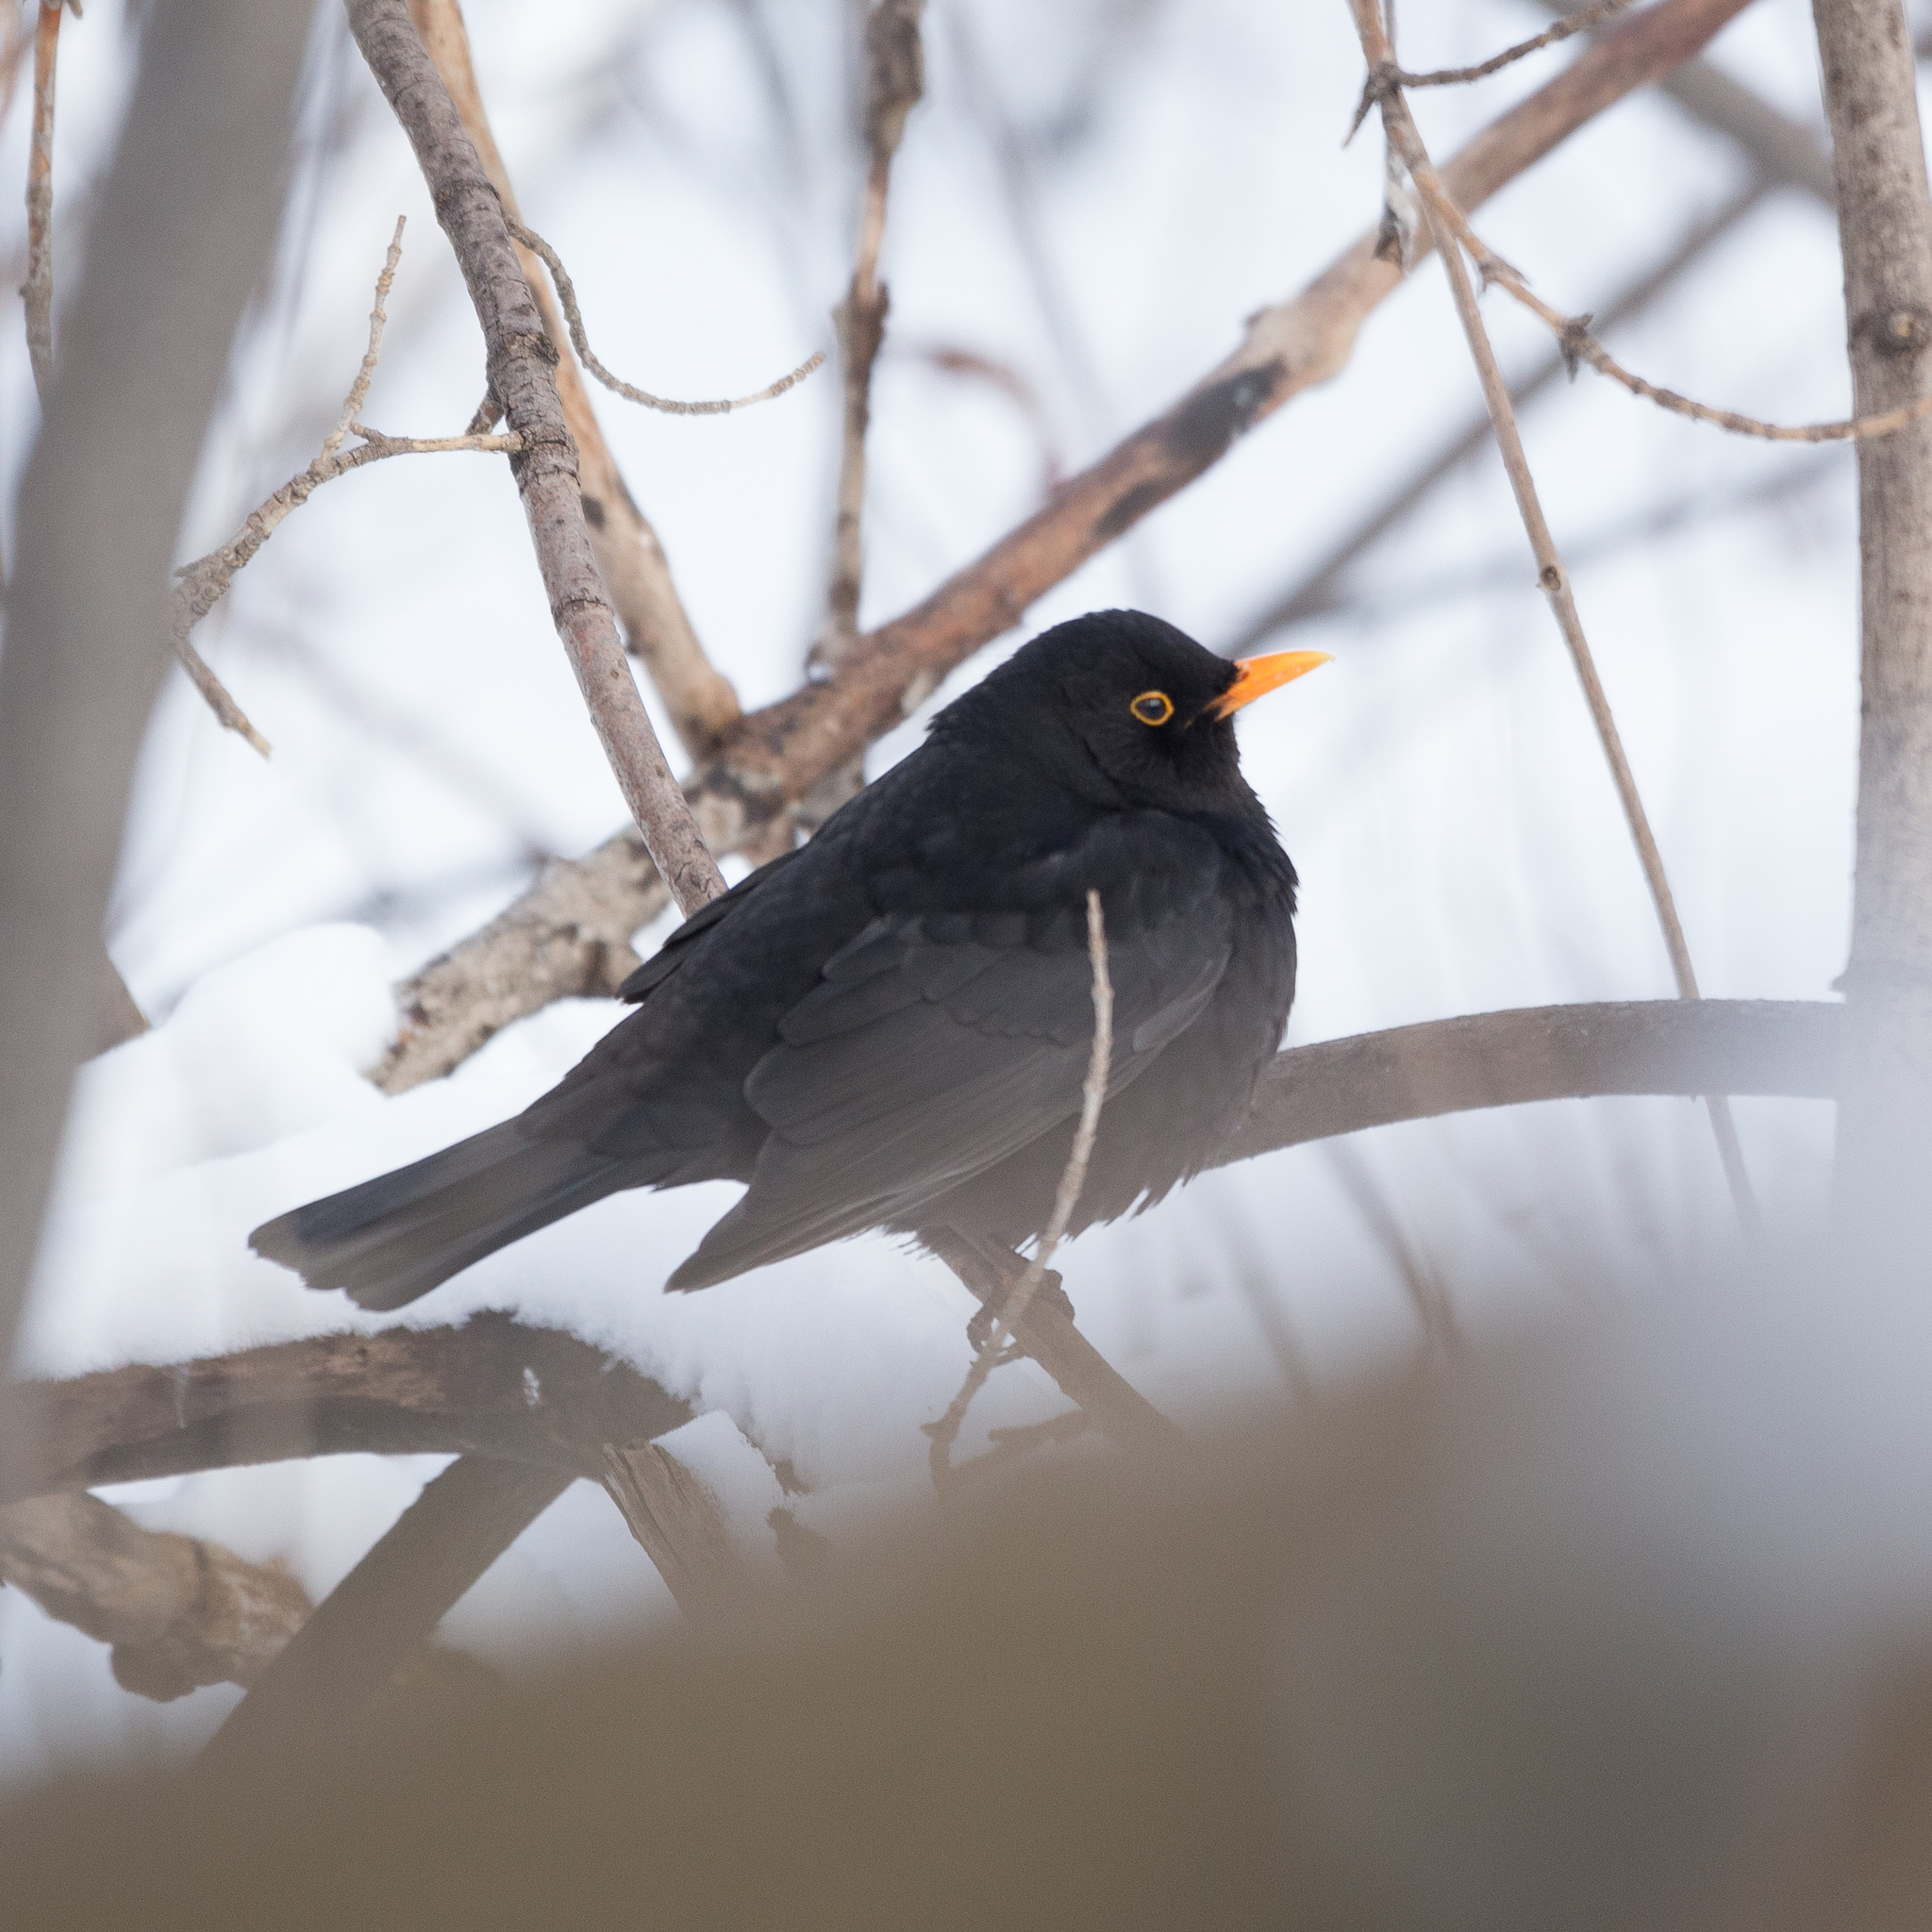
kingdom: Animalia
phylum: Chordata
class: Aves
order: Passeriformes
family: Turdidae
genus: Turdus
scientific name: Turdus merula
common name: Common blackbird
